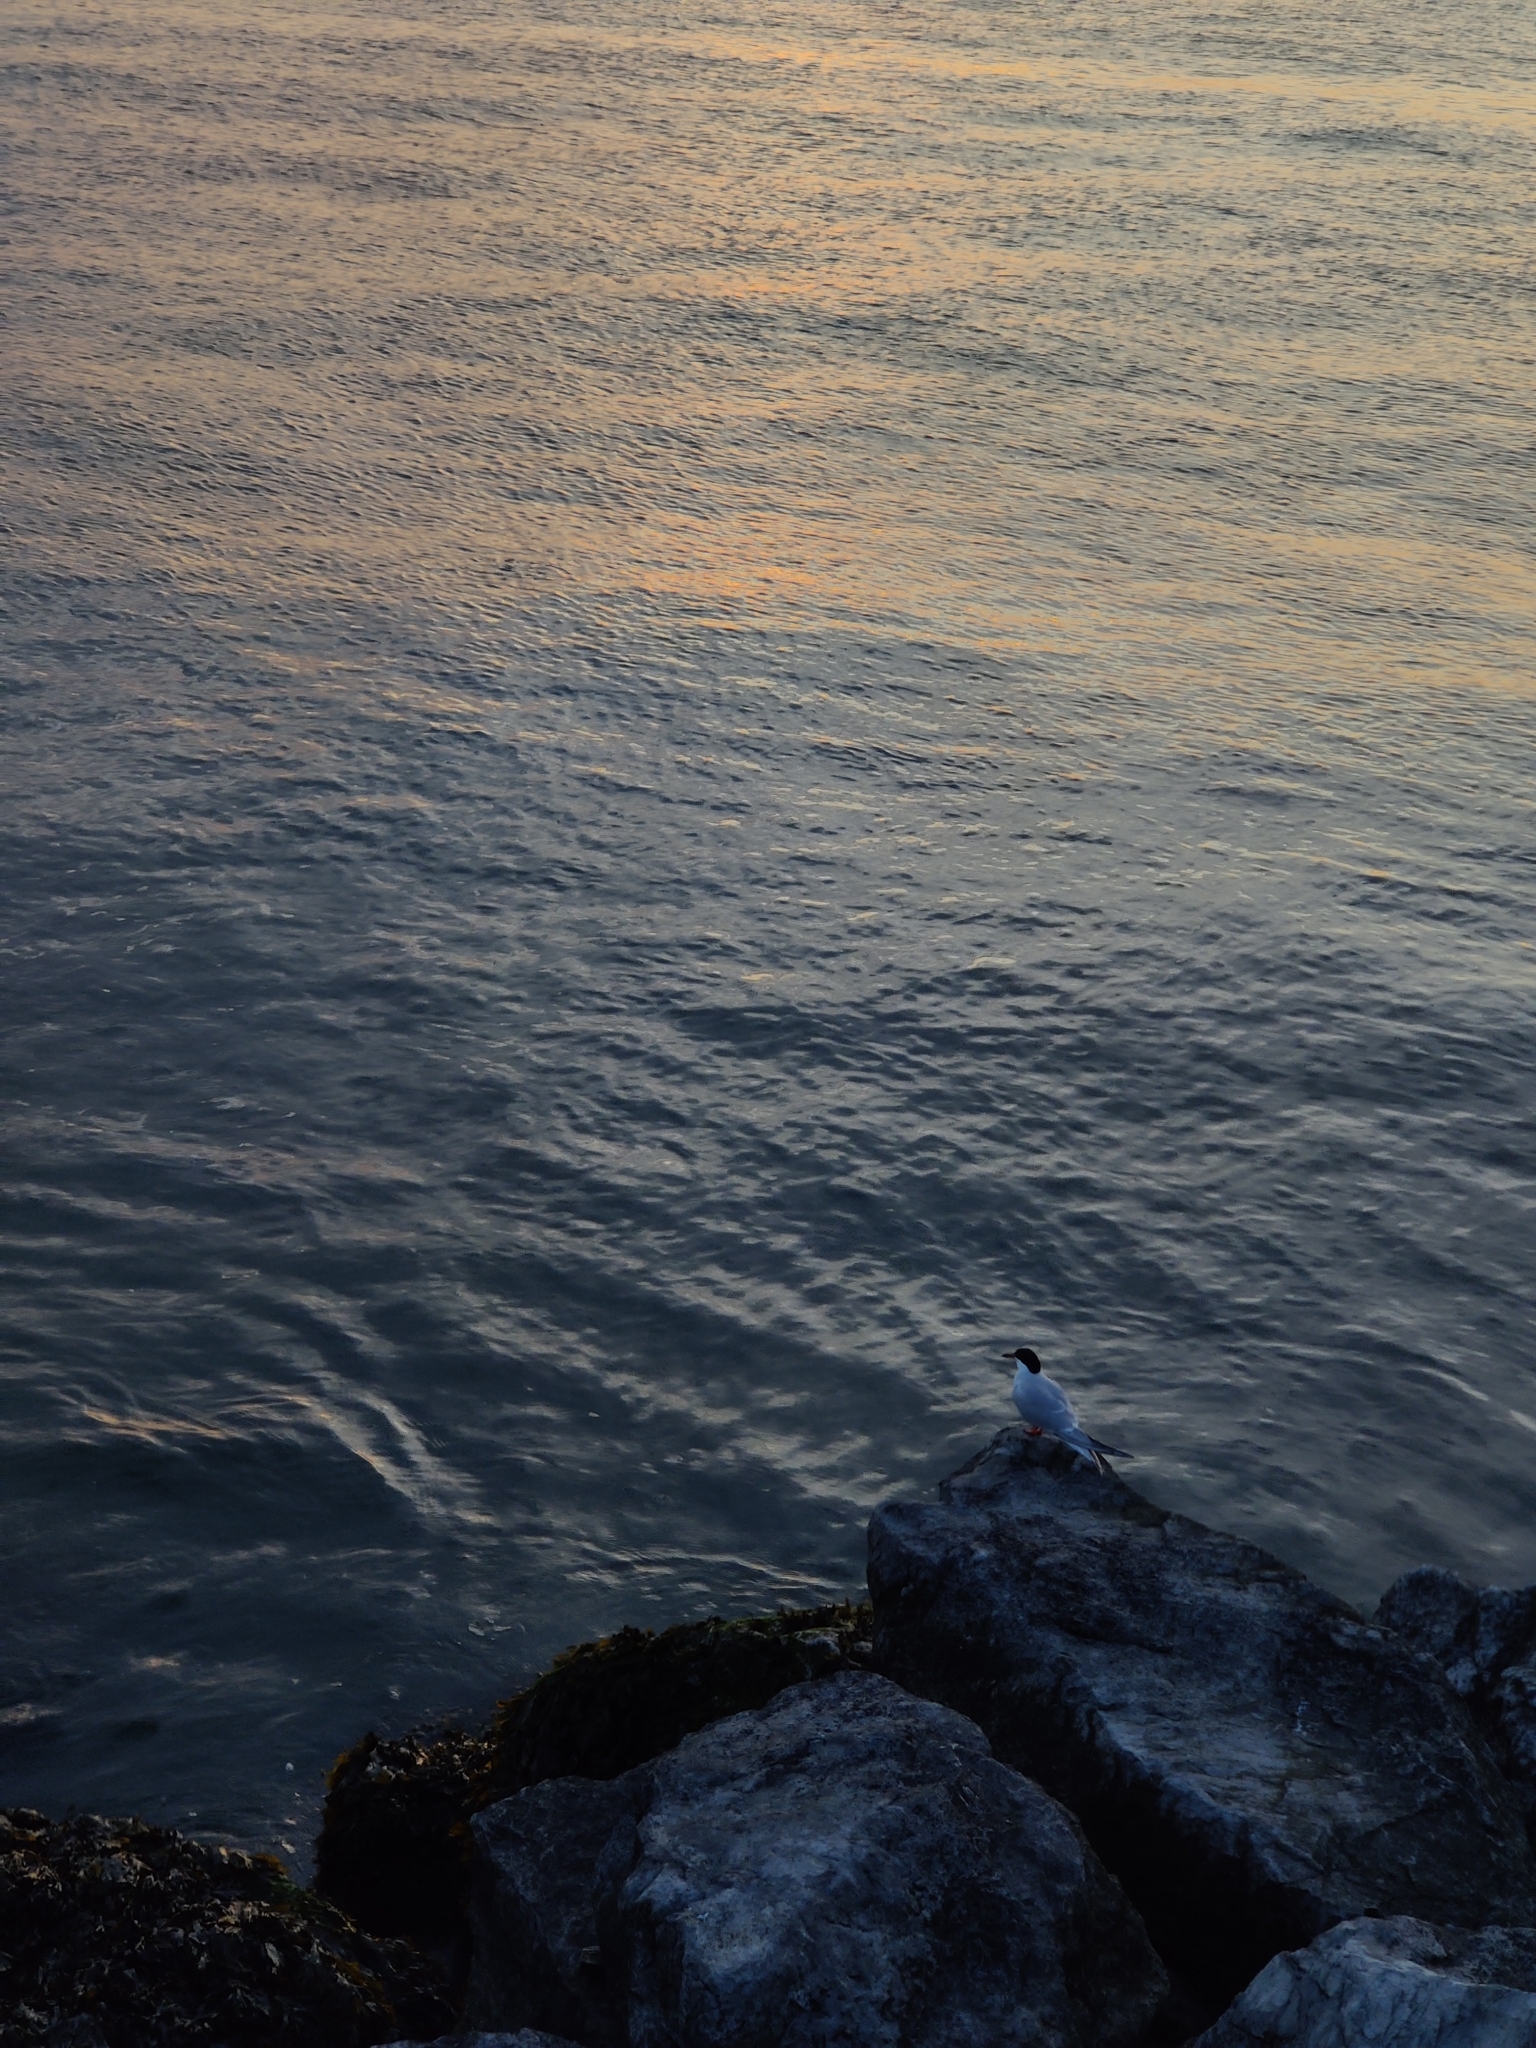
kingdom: Animalia
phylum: Chordata
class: Aves
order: Charadriiformes
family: Laridae
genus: Sterna
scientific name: Sterna hirundo
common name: Common tern
